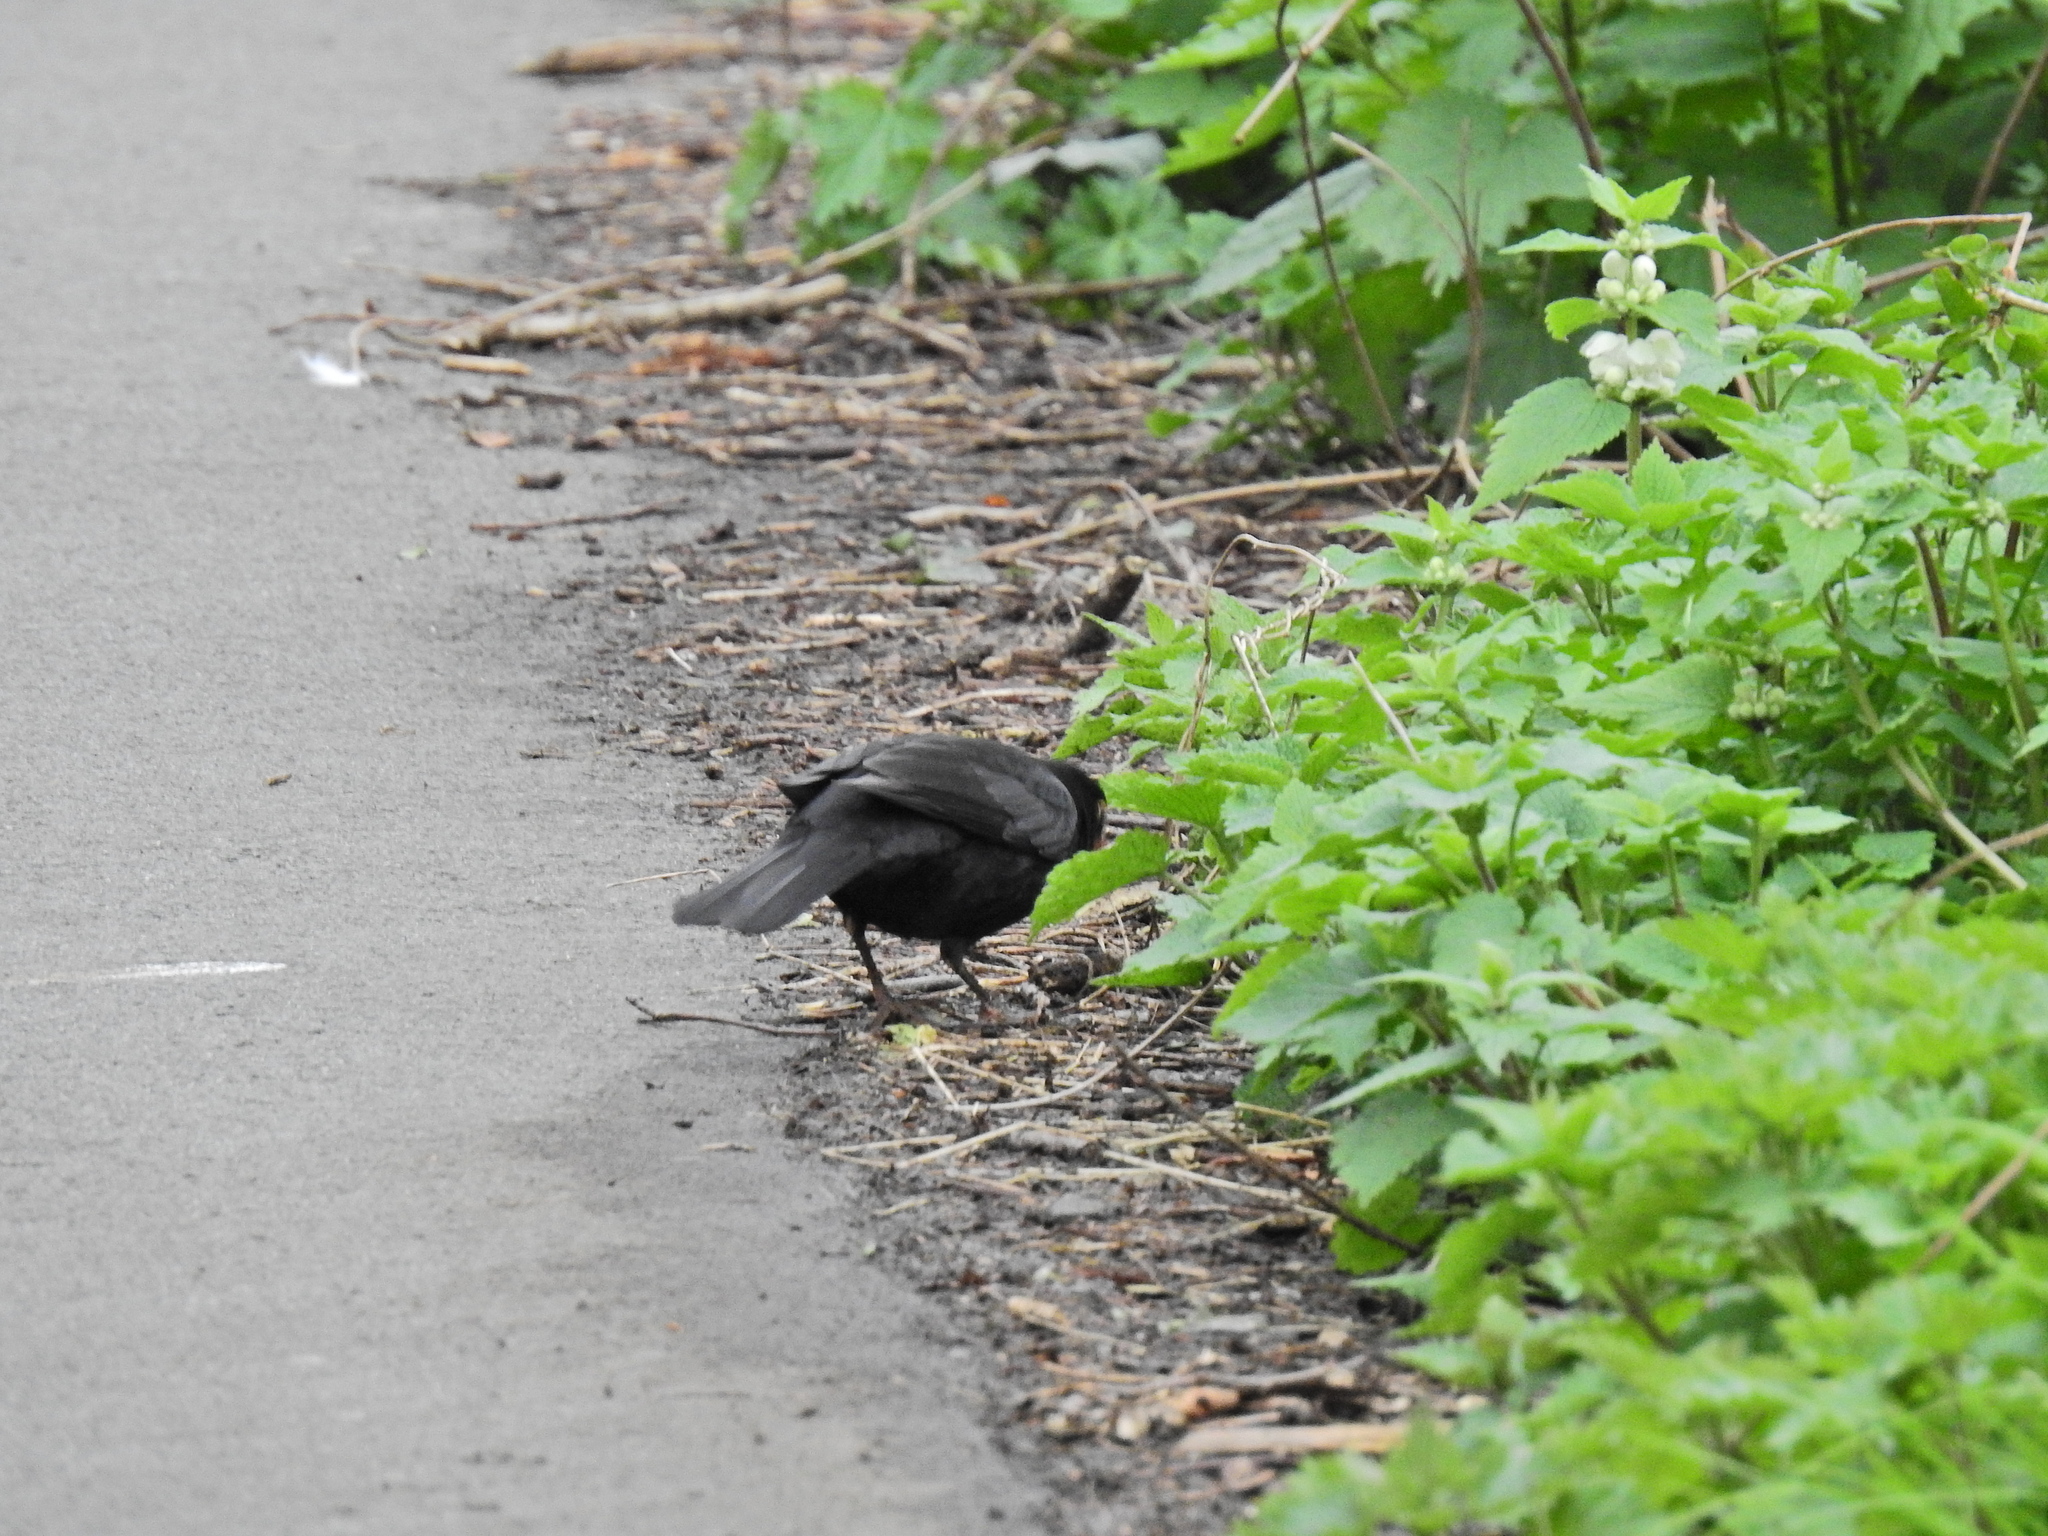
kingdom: Animalia
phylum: Chordata
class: Aves
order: Passeriformes
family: Turdidae
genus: Turdus
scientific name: Turdus merula
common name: Common blackbird
